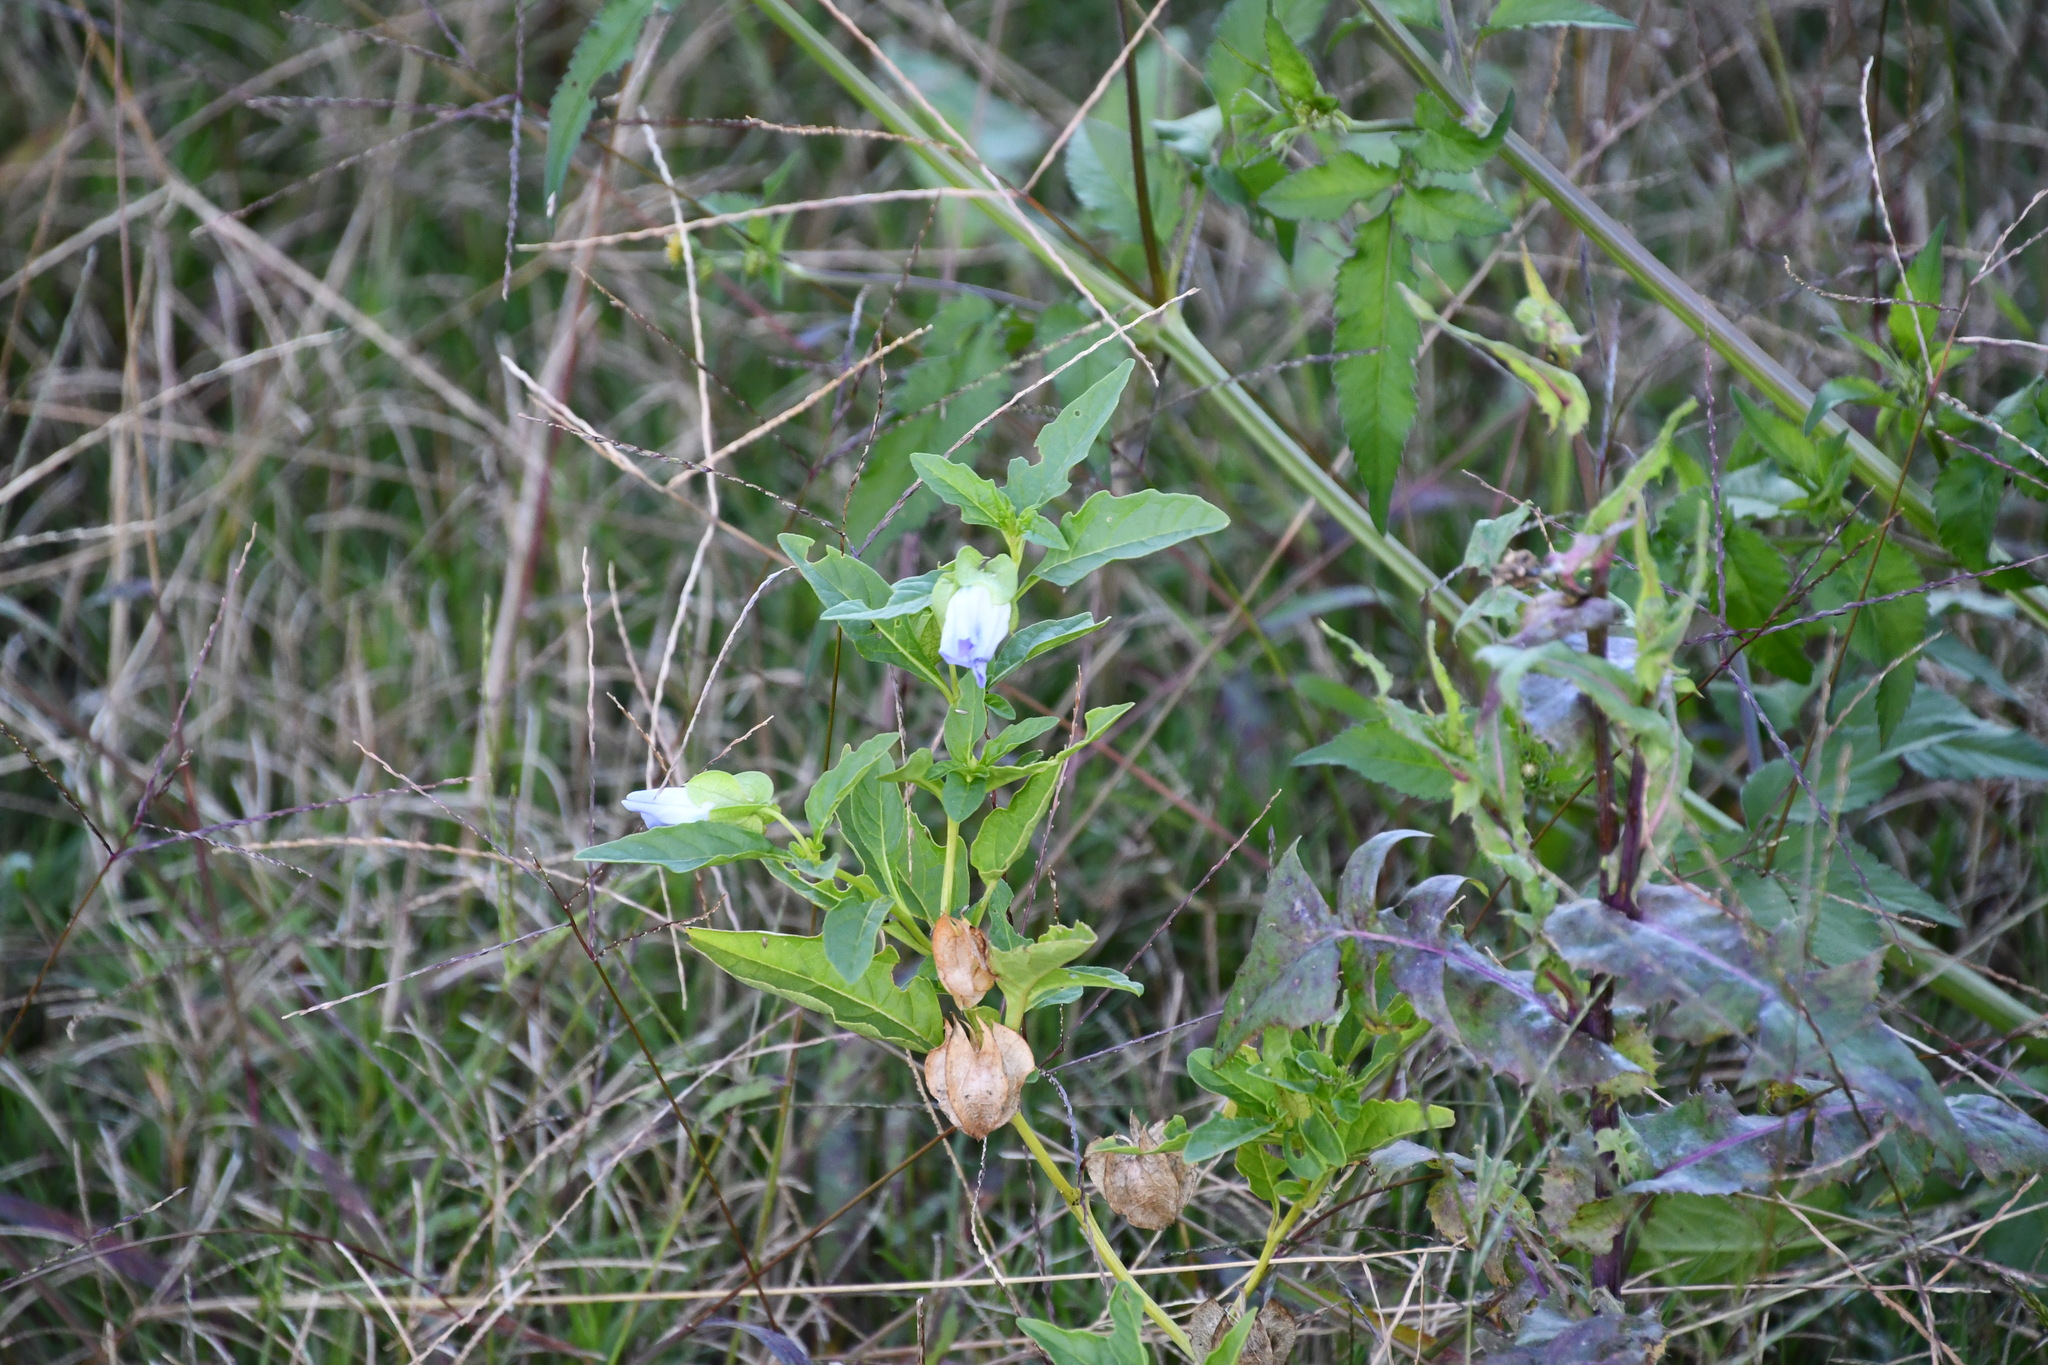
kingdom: Plantae
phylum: Tracheophyta
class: Magnoliopsida
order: Solanales
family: Solanaceae
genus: Nicandra
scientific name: Nicandra physalodes
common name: Apple-of-peru
